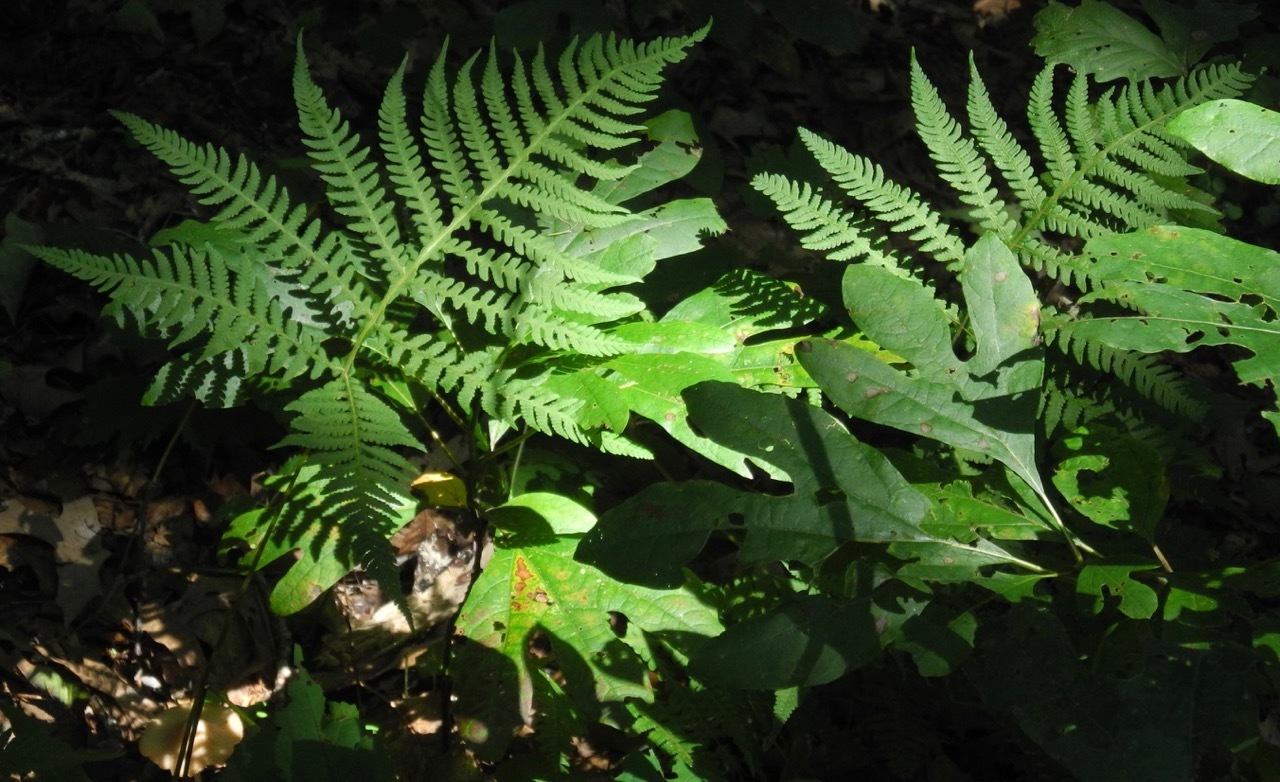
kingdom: Plantae
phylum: Tracheophyta
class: Polypodiopsida
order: Polypodiales
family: Thelypteridaceae
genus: Phegopteris
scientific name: Phegopteris hexagonoptera
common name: Broad beech fern
